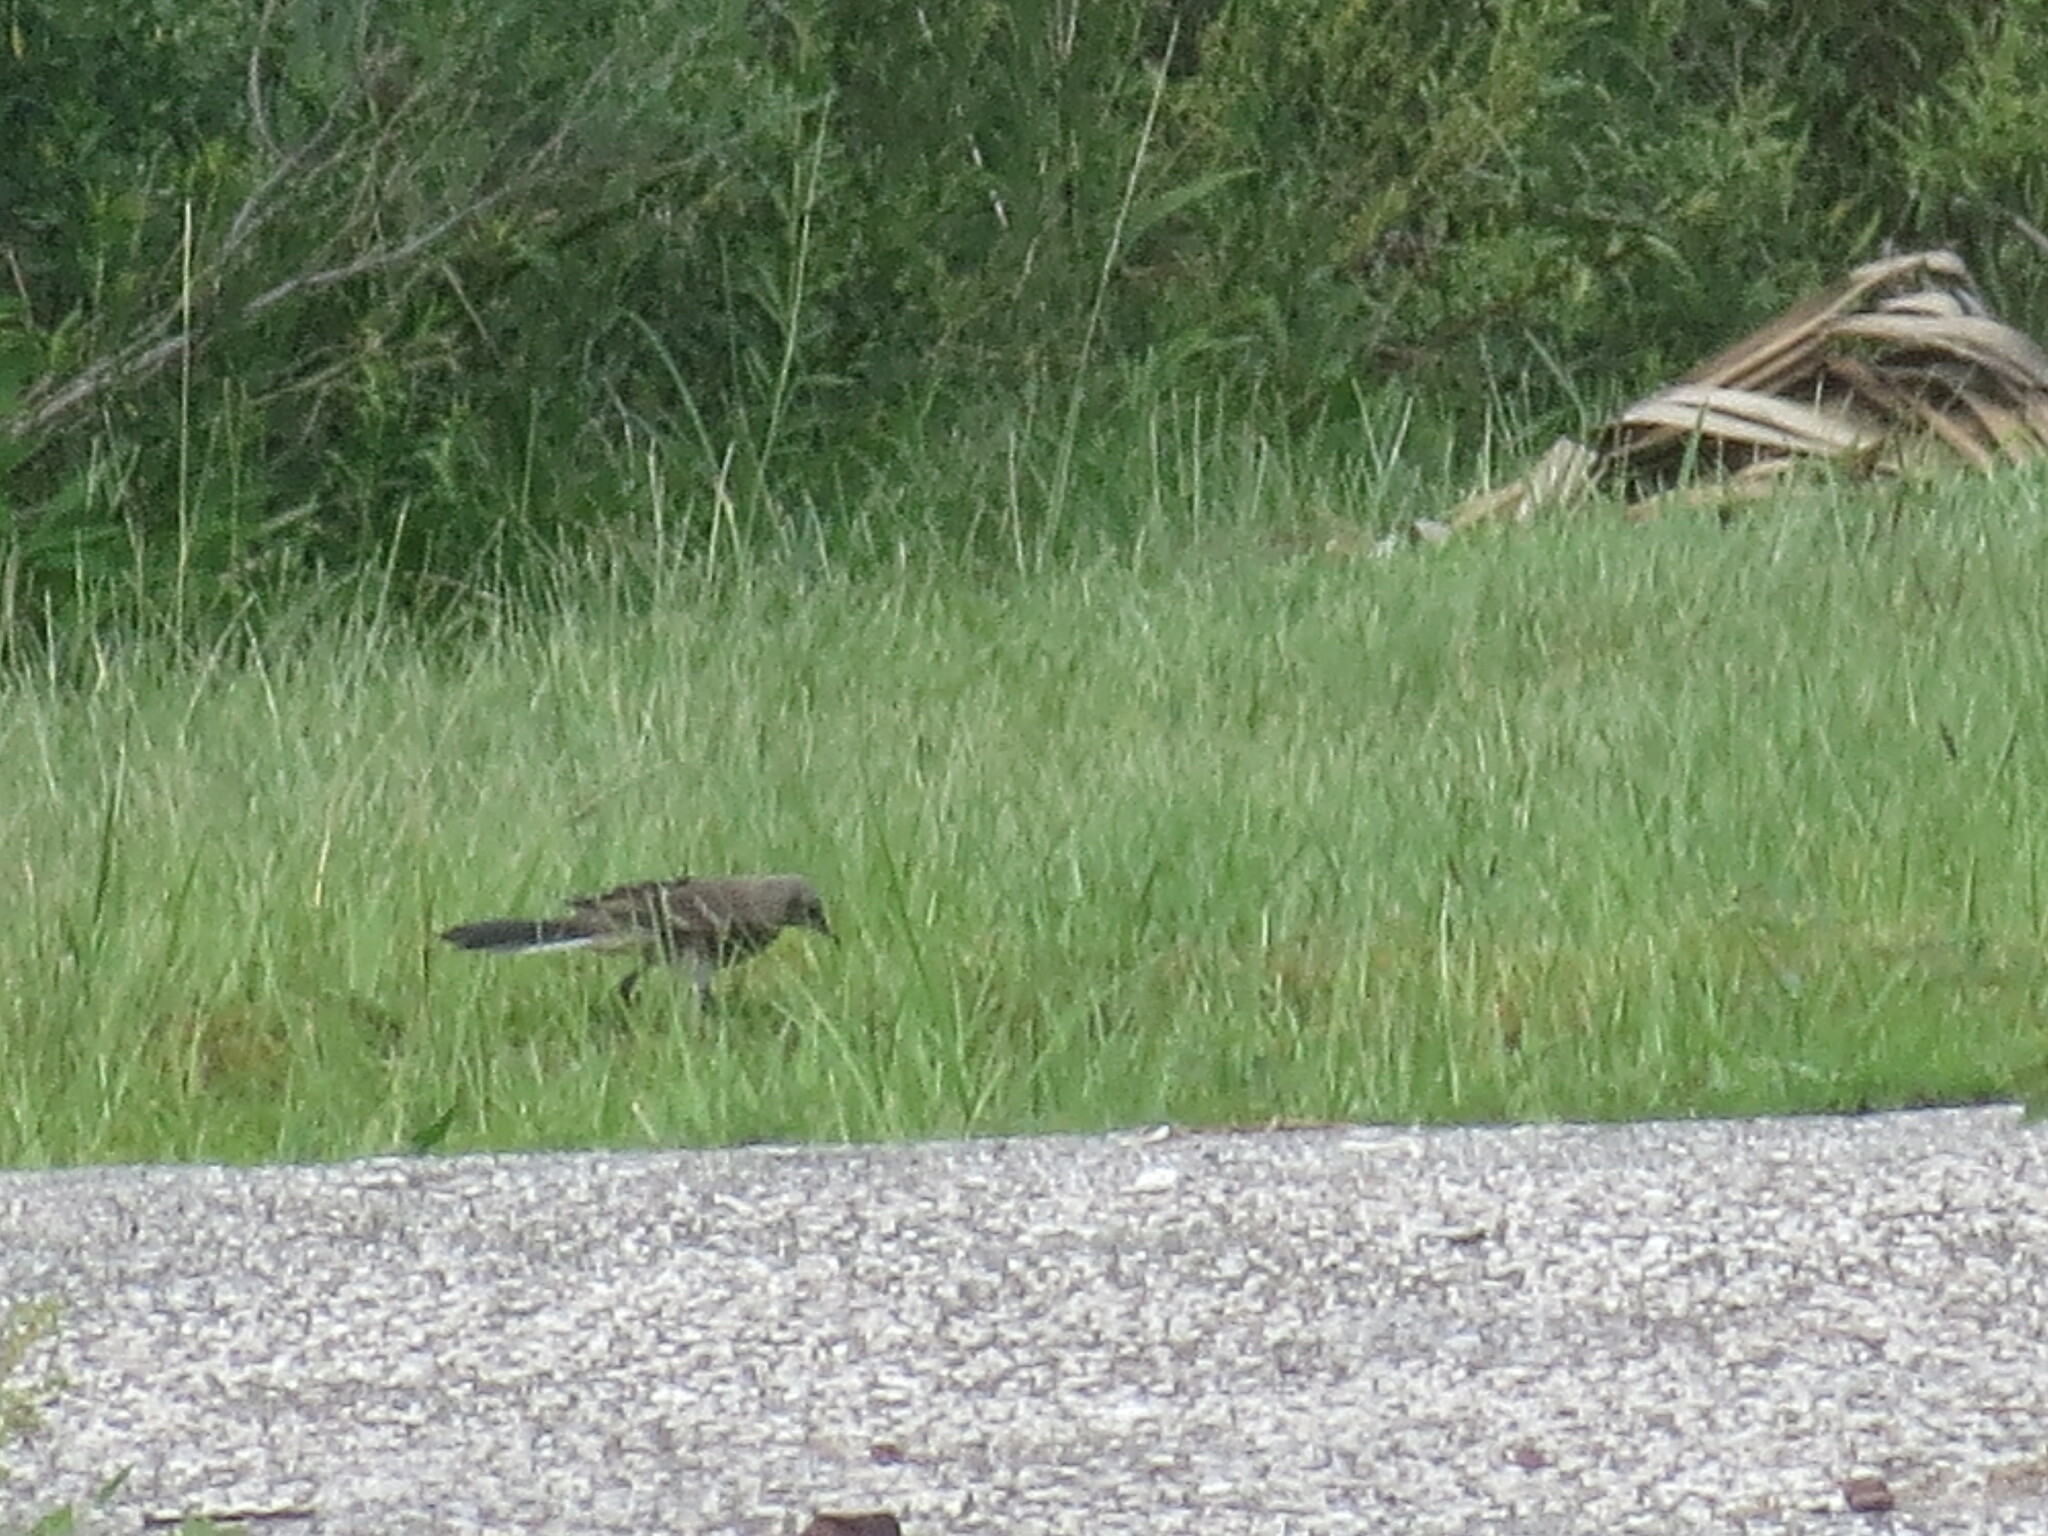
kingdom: Animalia
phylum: Chordata
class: Aves
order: Passeriformes
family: Mimidae
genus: Mimus
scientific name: Mimus polyglottos
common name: Northern mockingbird
